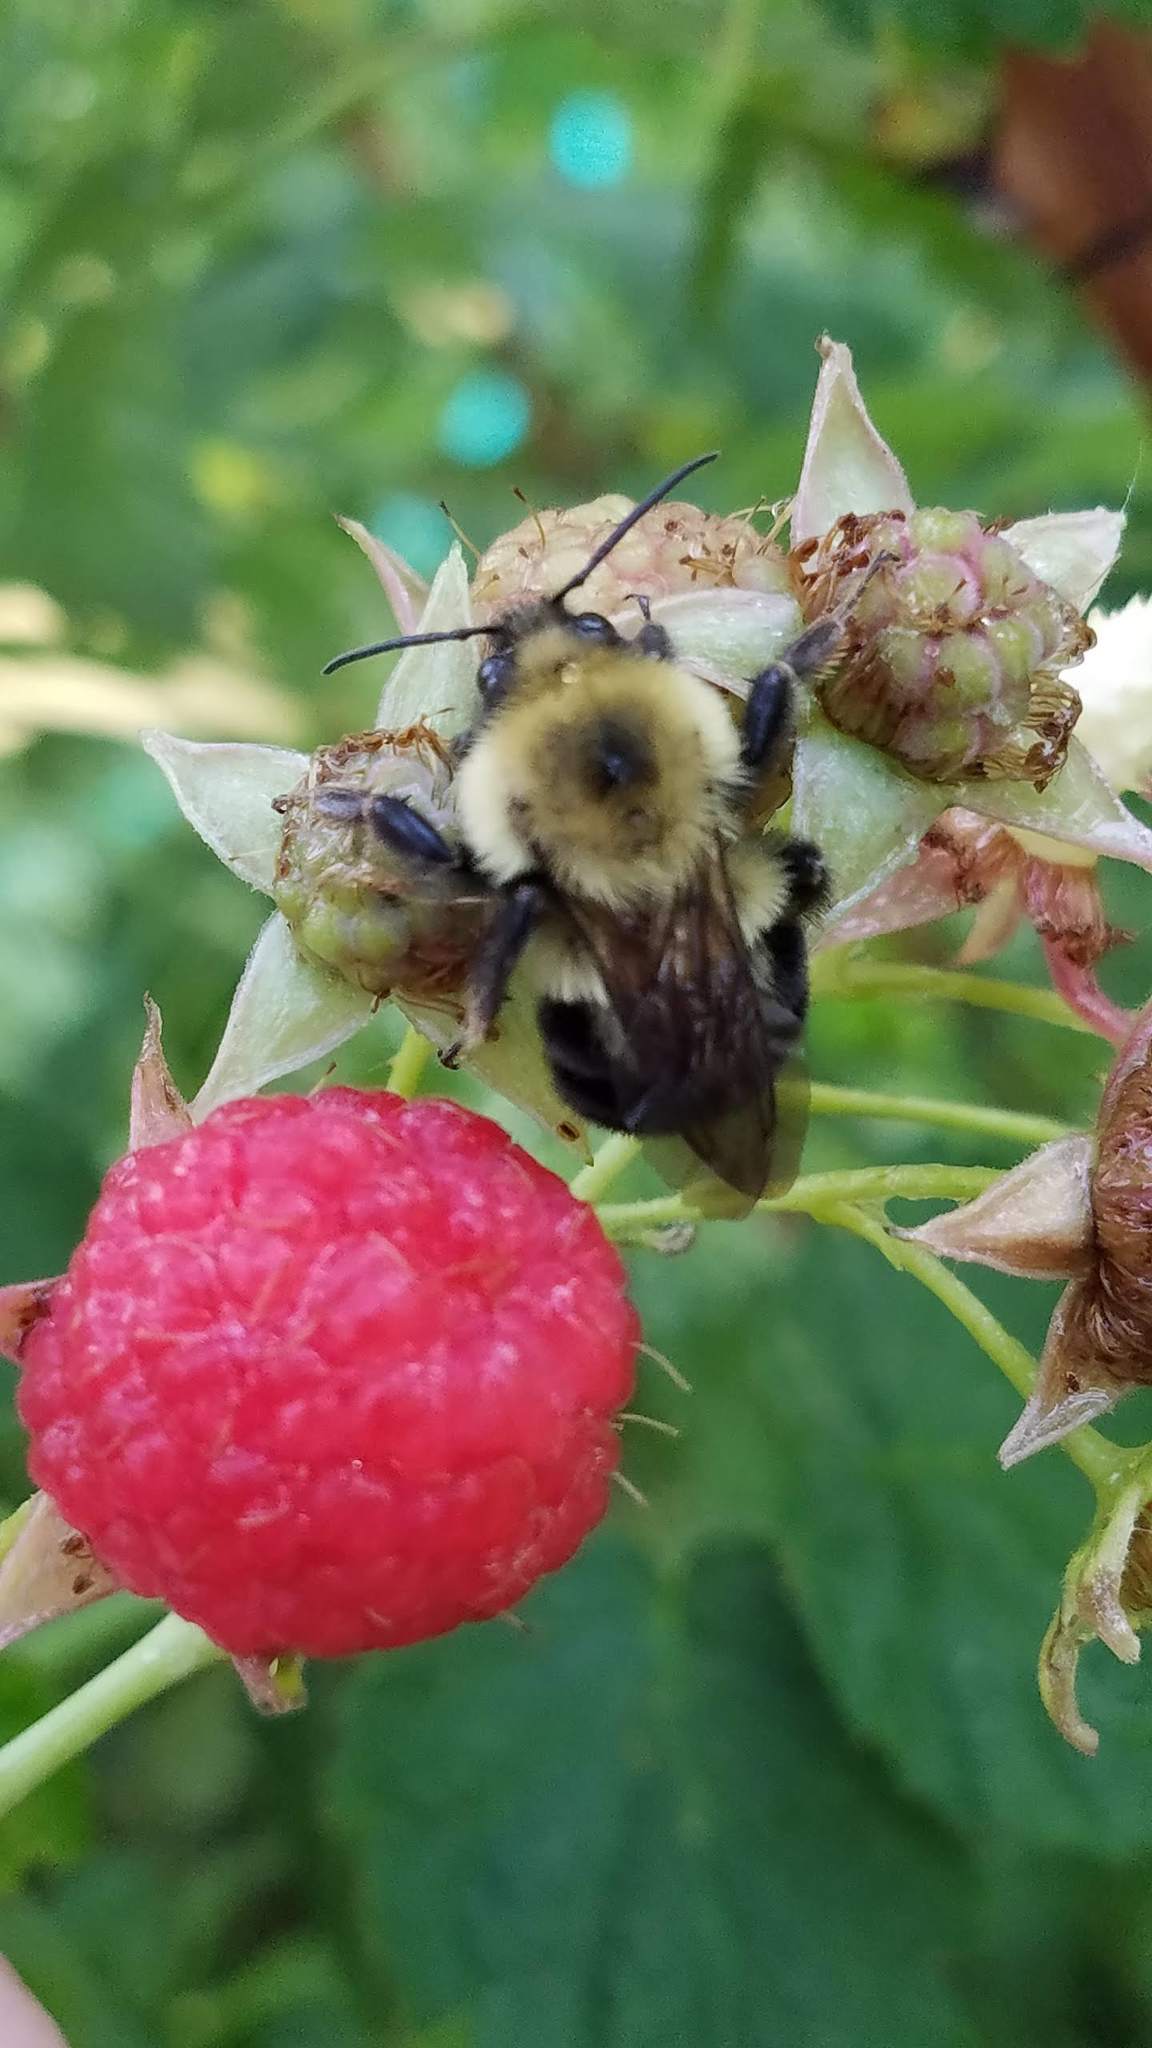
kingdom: Animalia
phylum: Arthropoda
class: Insecta
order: Hymenoptera
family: Apidae
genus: Bombus
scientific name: Bombus bimaculatus
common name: Two-spotted bumble bee
